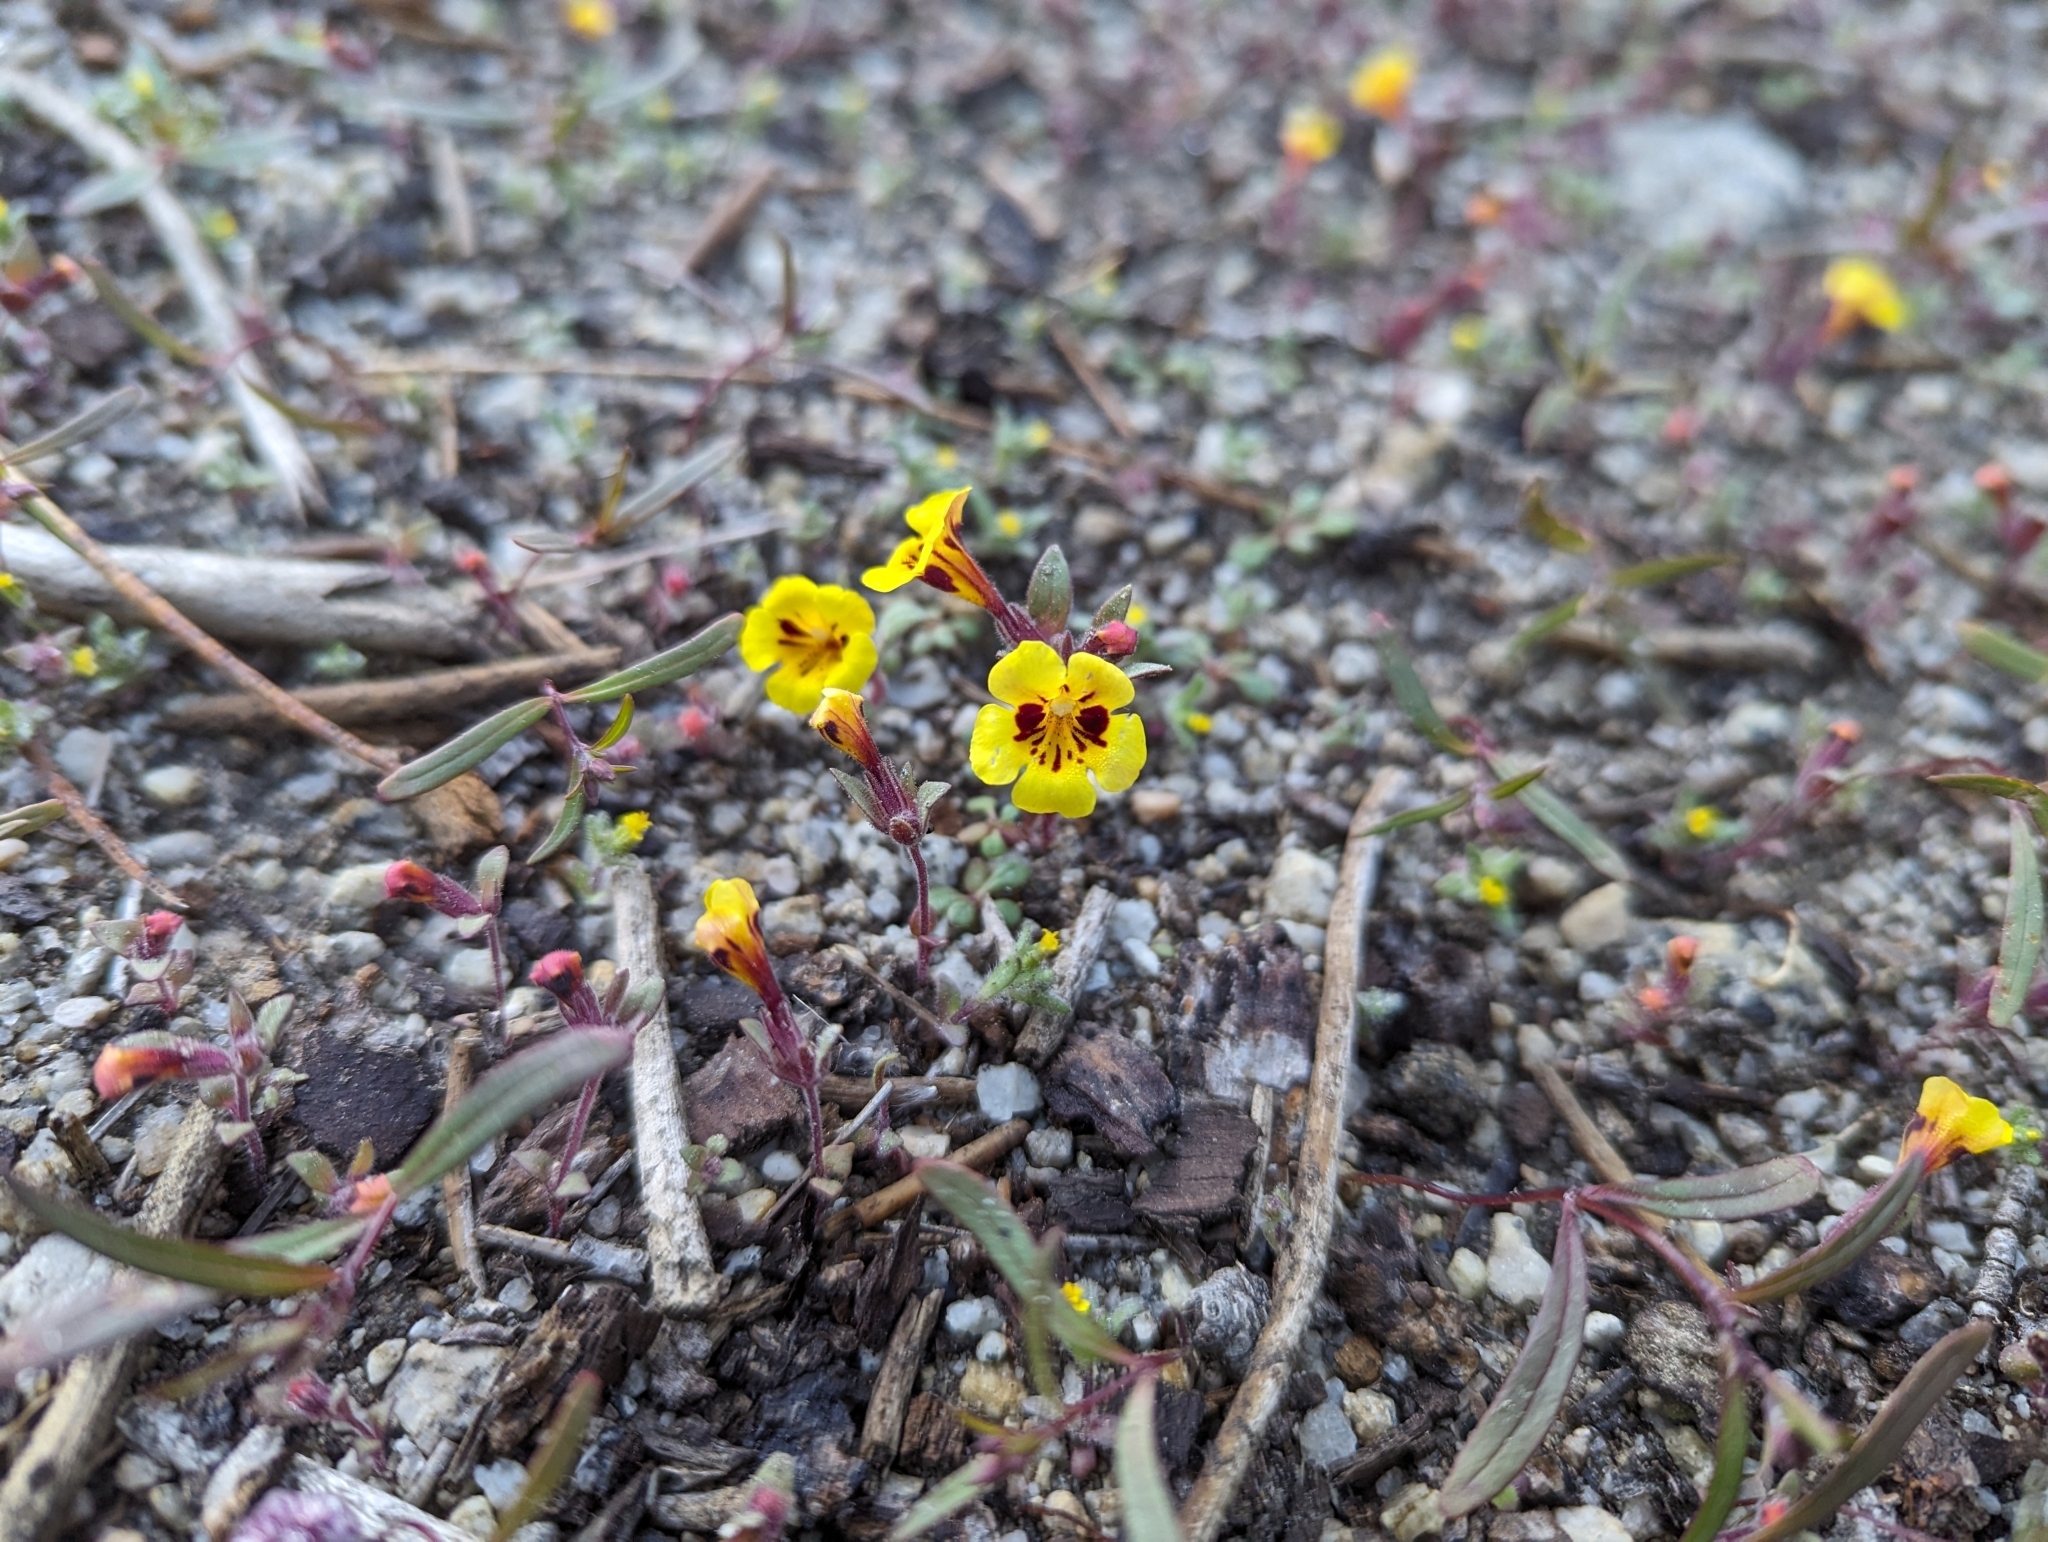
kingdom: Plantae
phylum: Tracheophyta
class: Magnoliopsida
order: Lamiales
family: Phrymaceae
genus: Diplacus
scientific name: Diplacus bicolor
